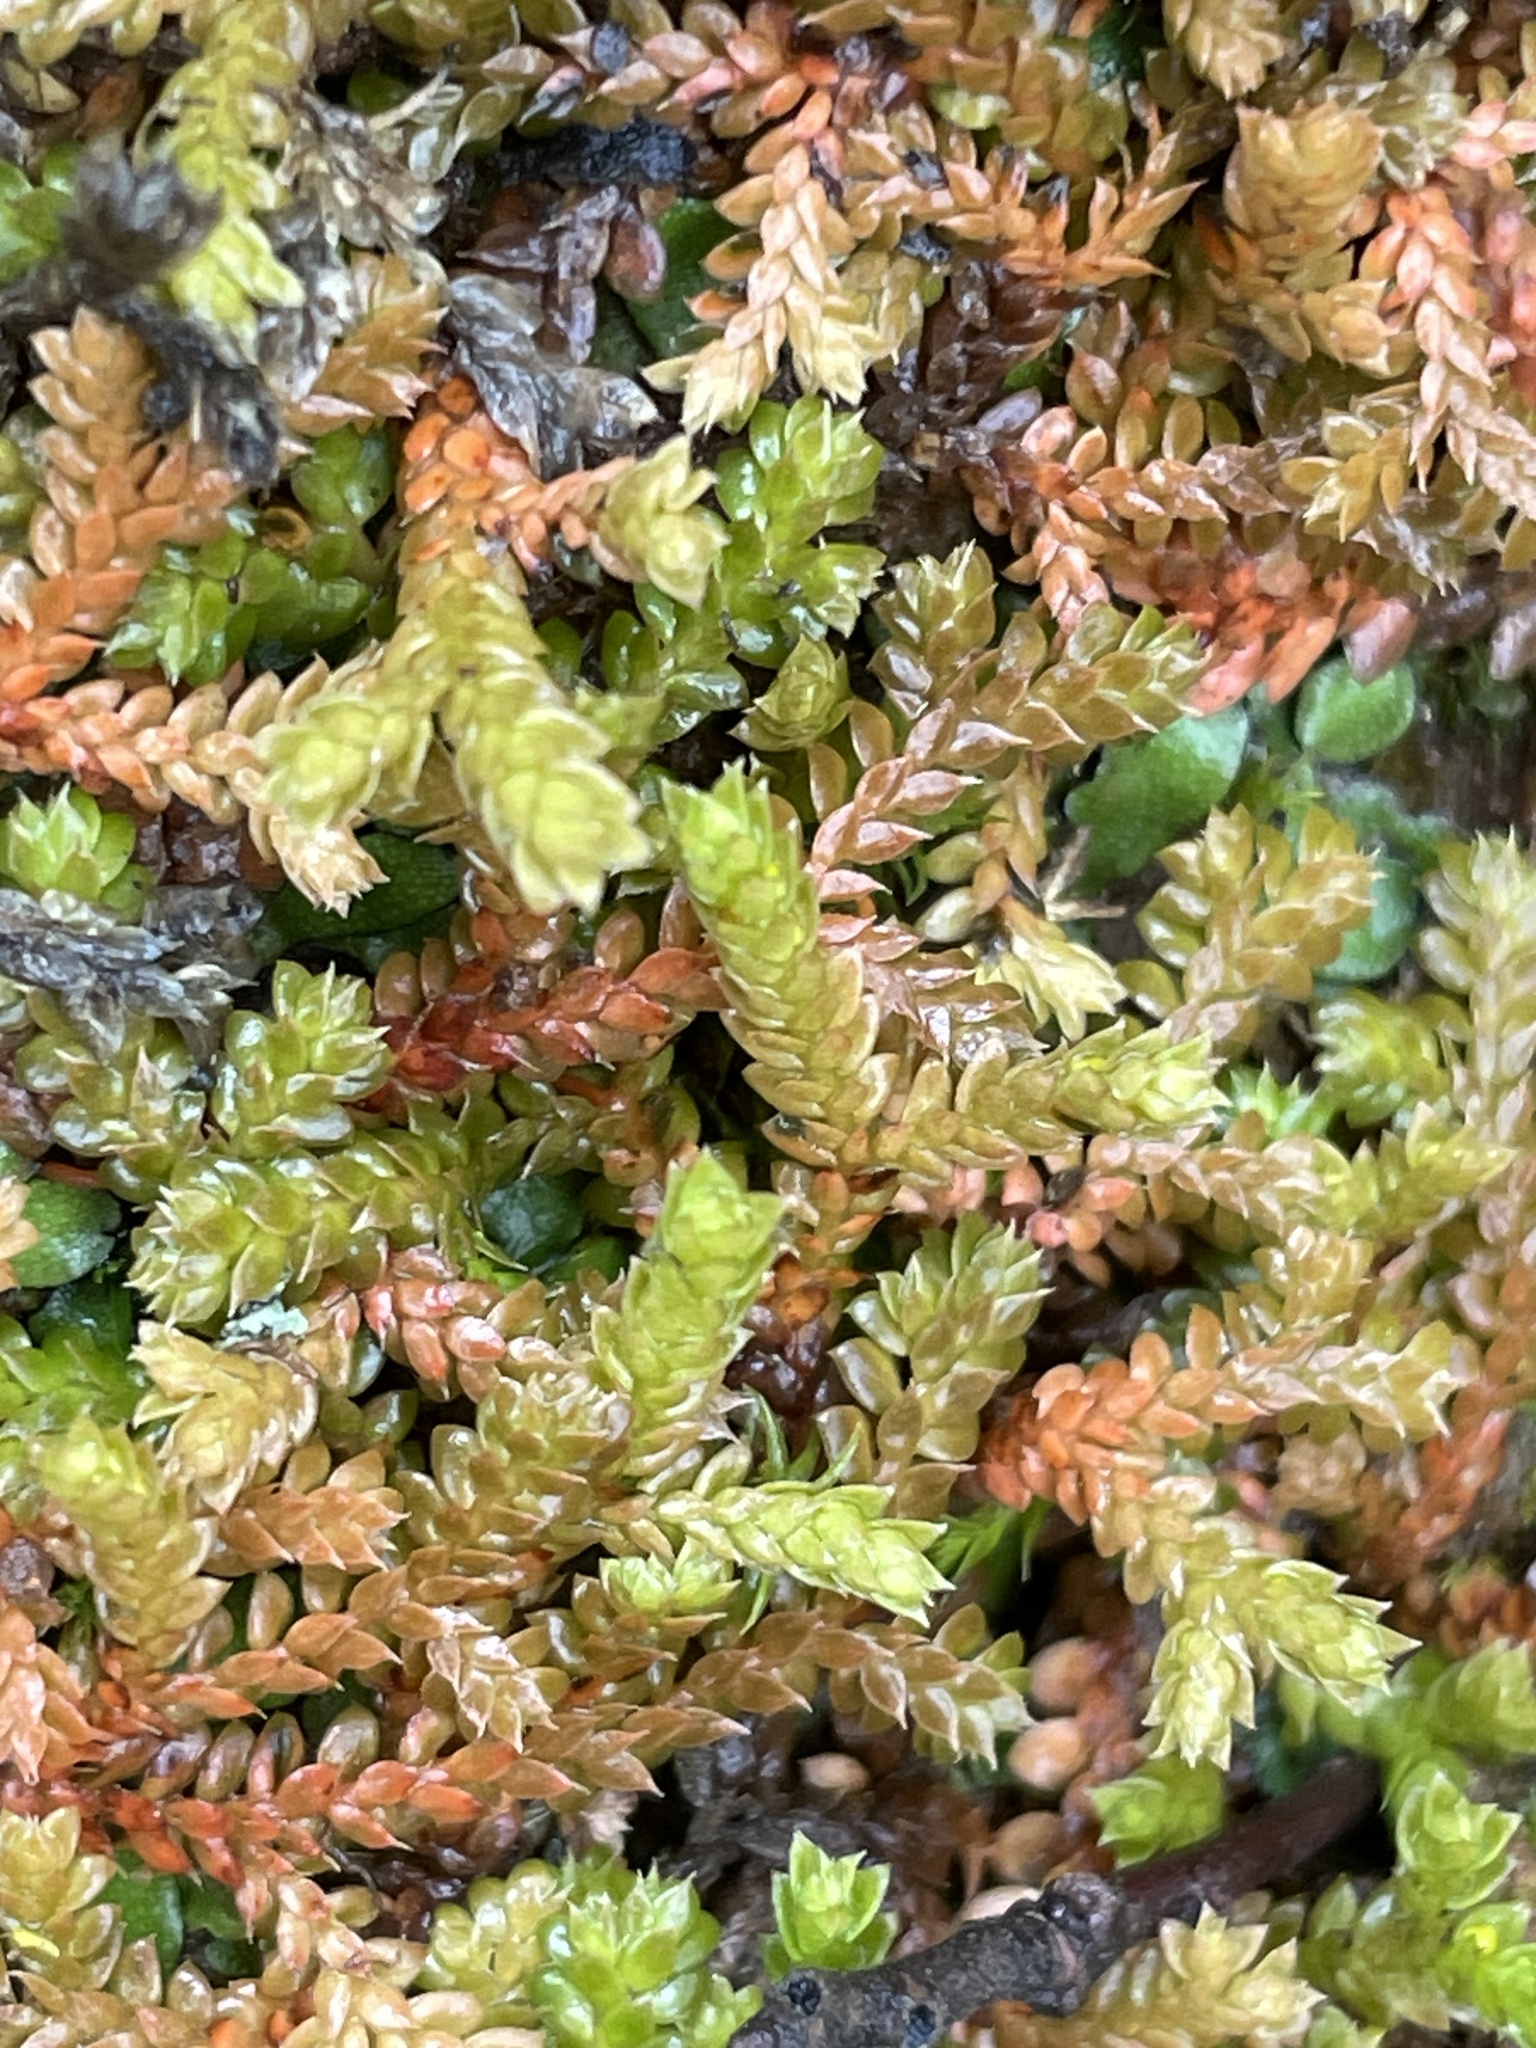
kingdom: Plantae
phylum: Tracheophyta
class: Lycopodiopsida
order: Selaginellales
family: Selaginellaceae
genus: Selaginella
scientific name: Selaginella denticulata
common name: Toothed-leaved clubmoss
